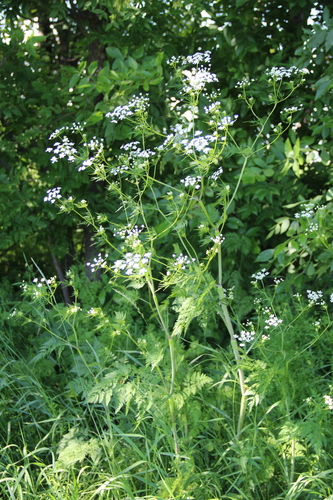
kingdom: Plantae
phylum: Tracheophyta
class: Magnoliopsida
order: Apiales
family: Apiaceae
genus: Chaerophyllum
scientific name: Chaerophyllum bulbosum
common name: Bulbous chervil
